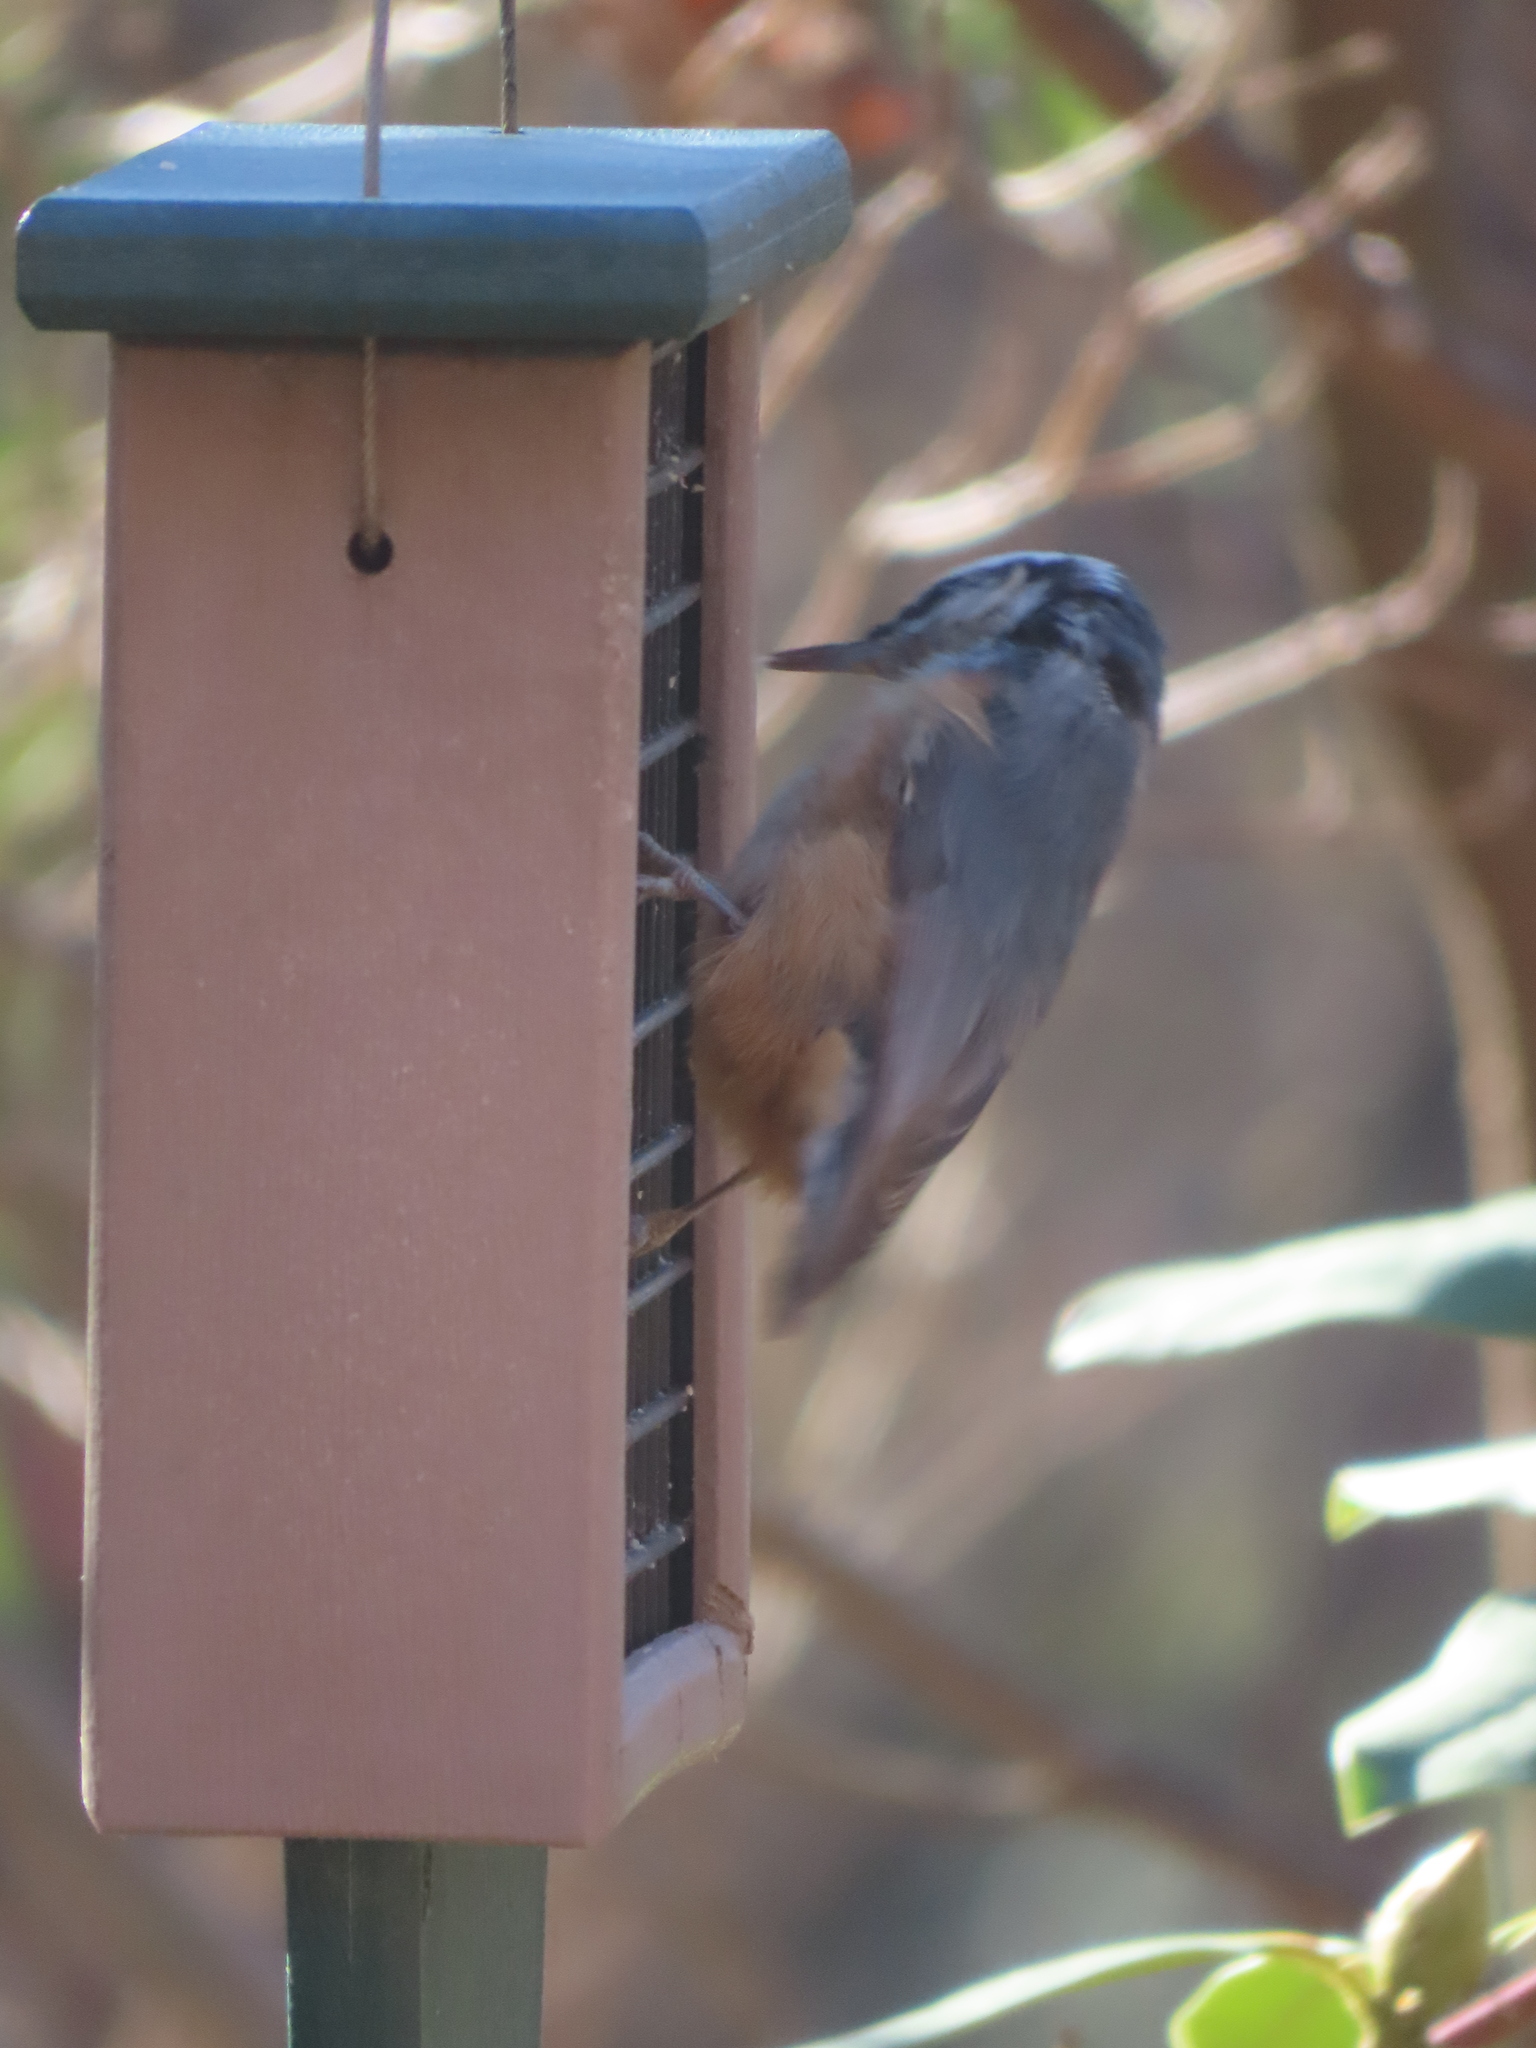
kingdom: Animalia
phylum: Chordata
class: Aves
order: Passeriformes
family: Sittidae
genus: Sitta
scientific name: Sitta canadensis
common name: Red-breasted nuthatch
